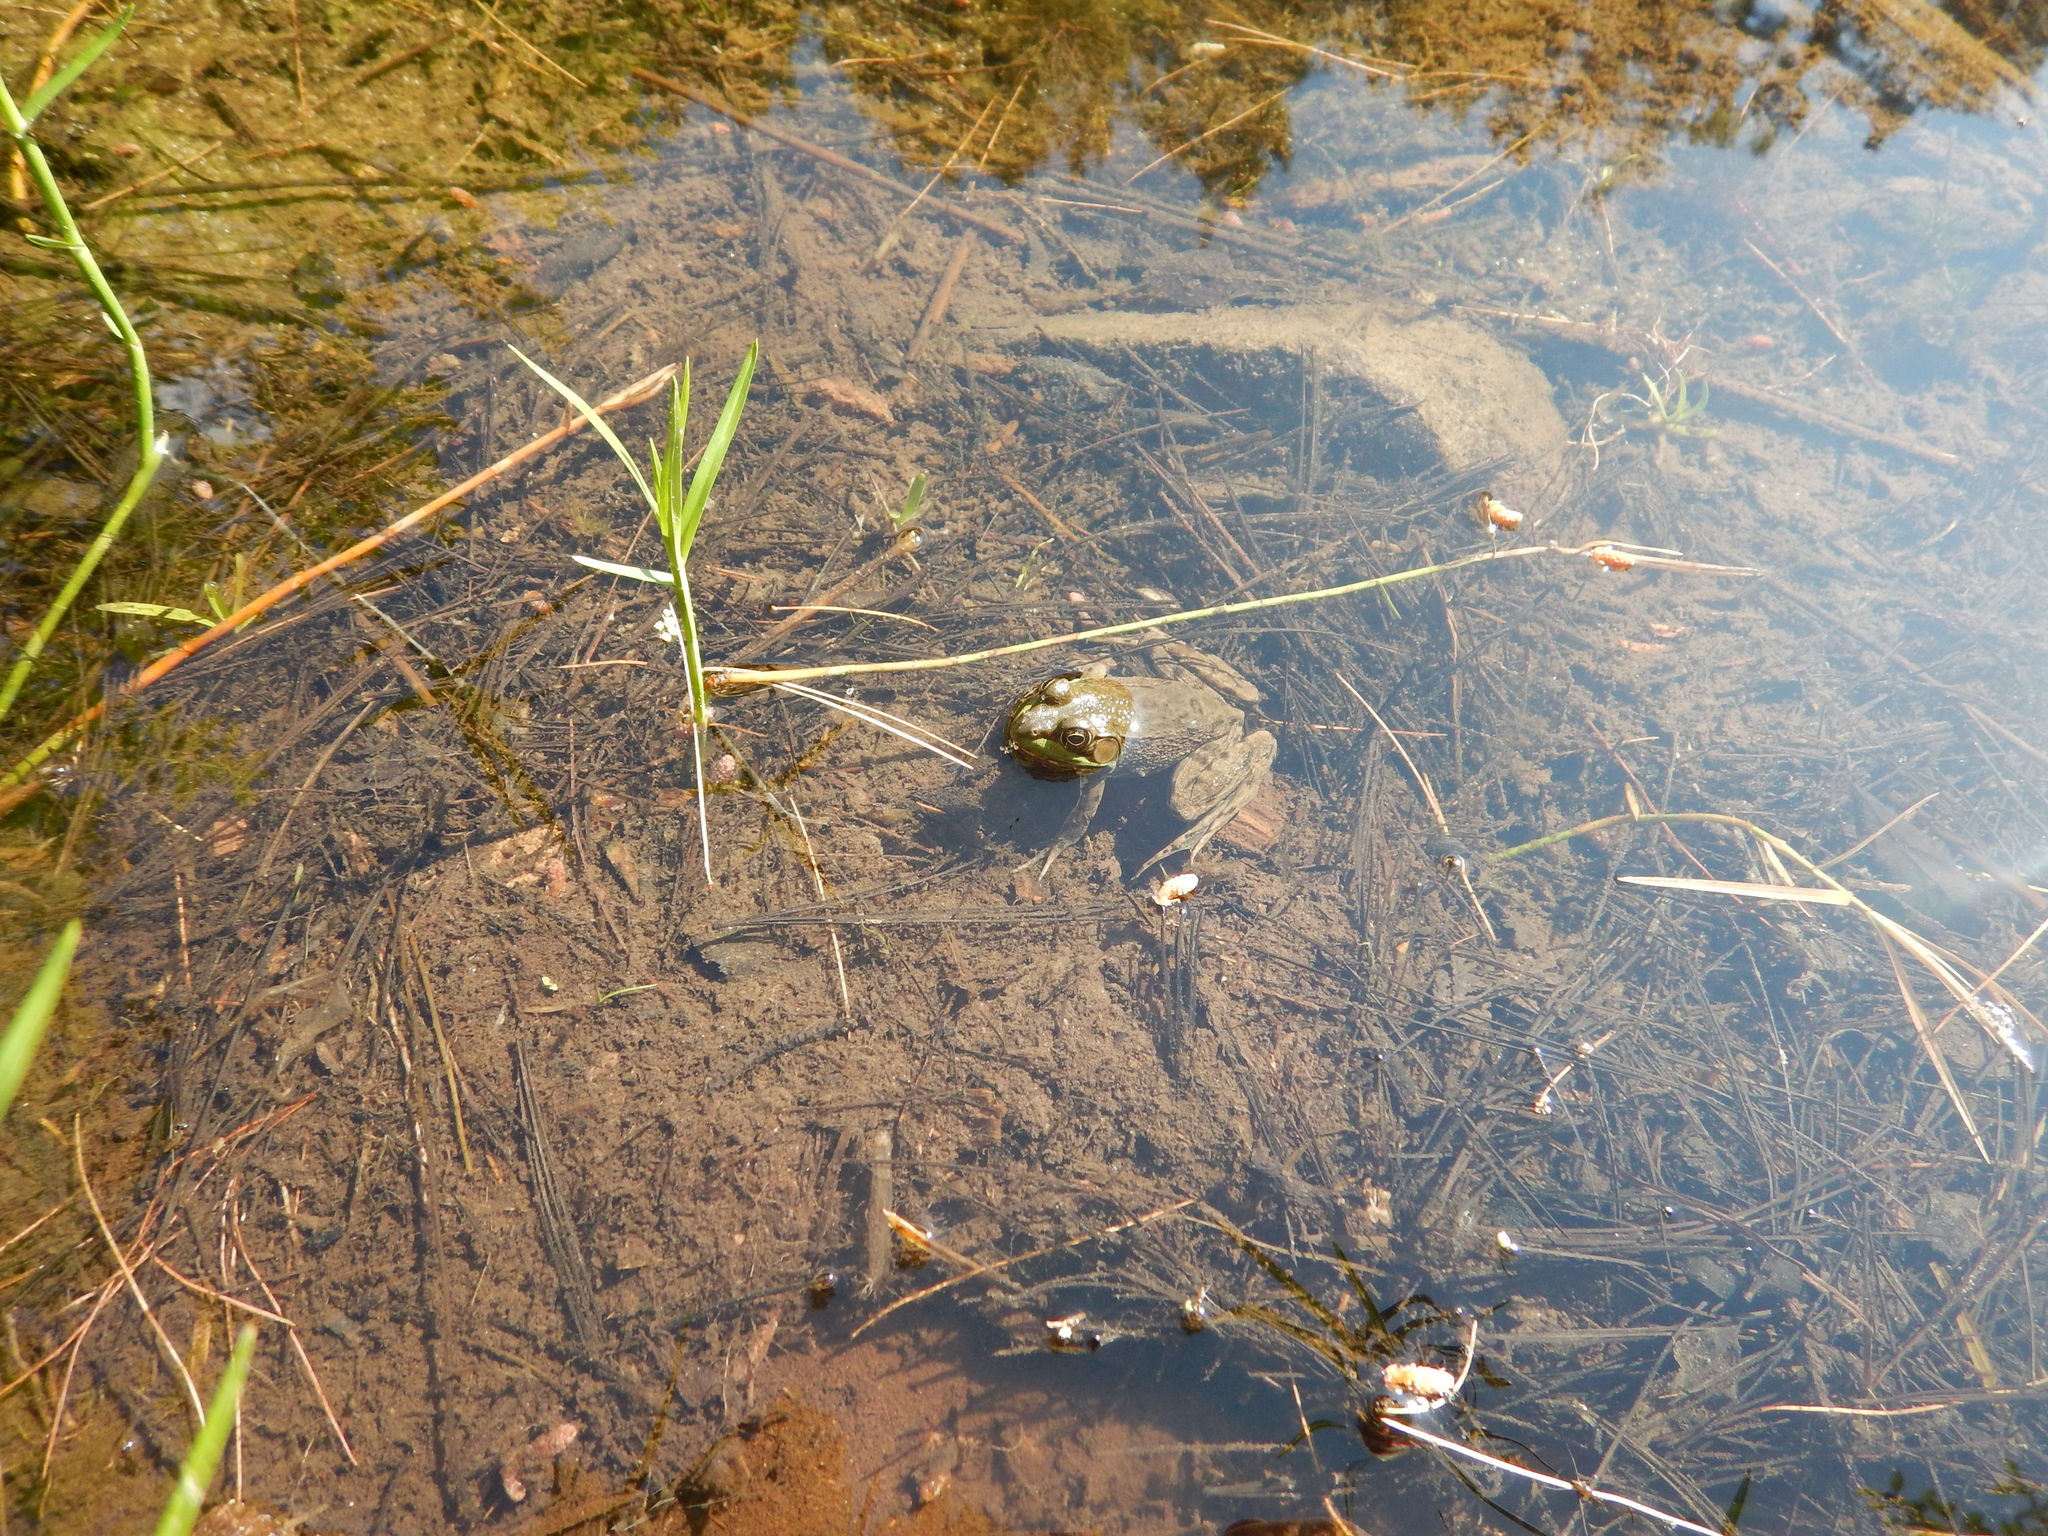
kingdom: Animalia
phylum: Chordata
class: Amphibia
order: Anura
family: Ranidae
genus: Lithobates
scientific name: Lithobates clamitans
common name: Green frog
